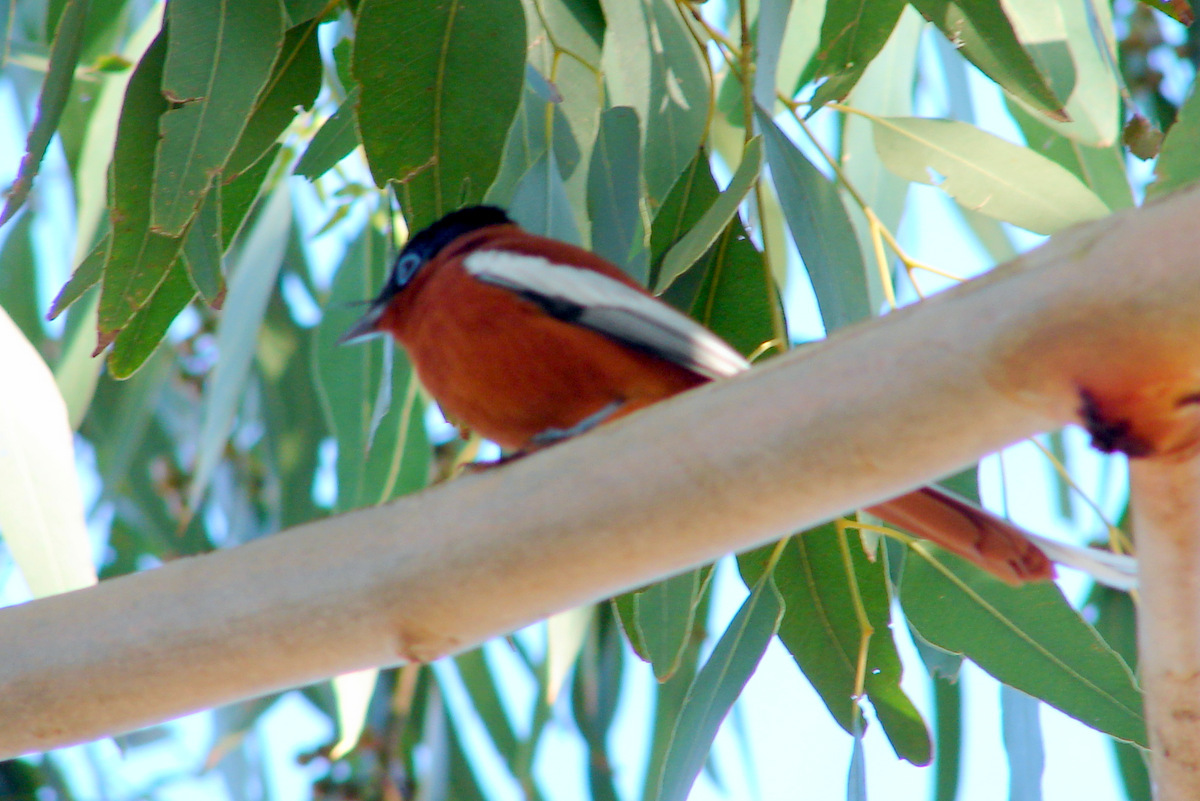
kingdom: Animalia
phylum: Chordata
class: Aves
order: Passeriformes
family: Monarchidae
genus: Terpsiphone
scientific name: Terpsiphone mutata
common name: Malagasy paradise flycatcher
